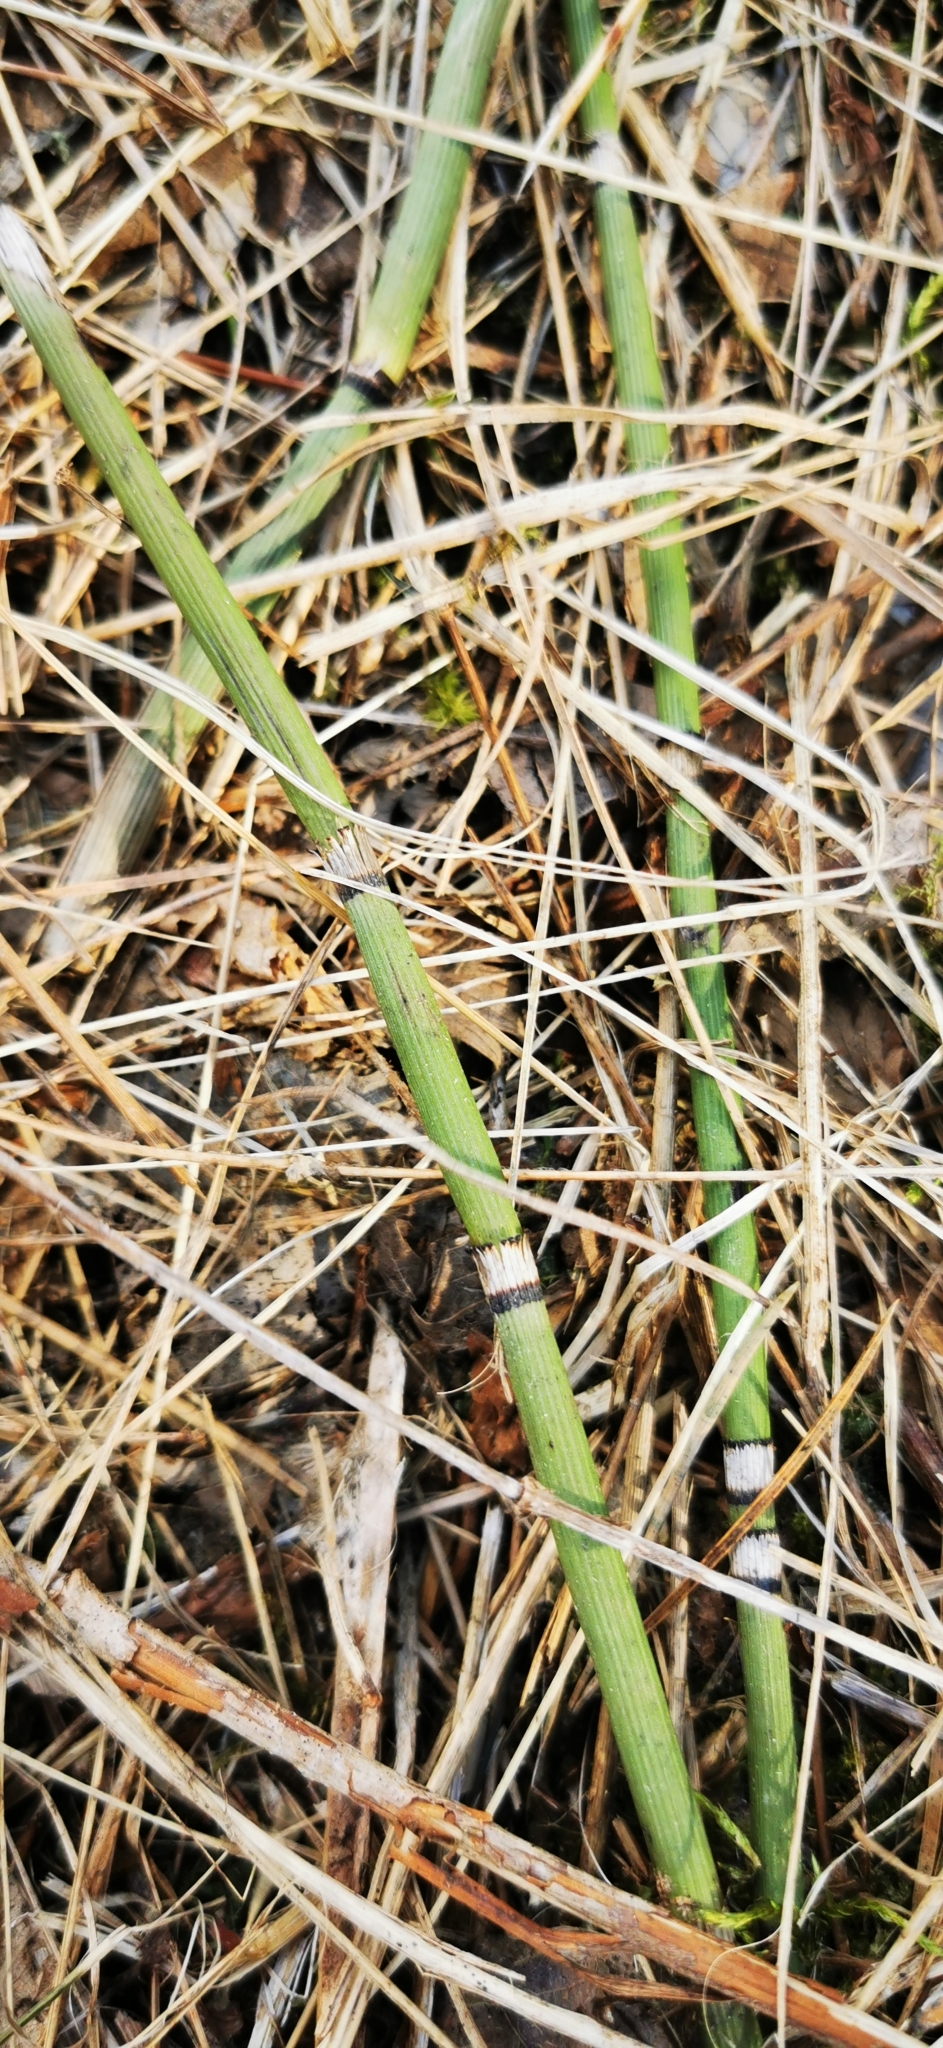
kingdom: Plantae
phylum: Tracheophyta
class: Polypodiopsida
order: Equisetales
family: Equisetaceae
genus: Equisetum
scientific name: Equisetum hyemale
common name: Rough horsetail
